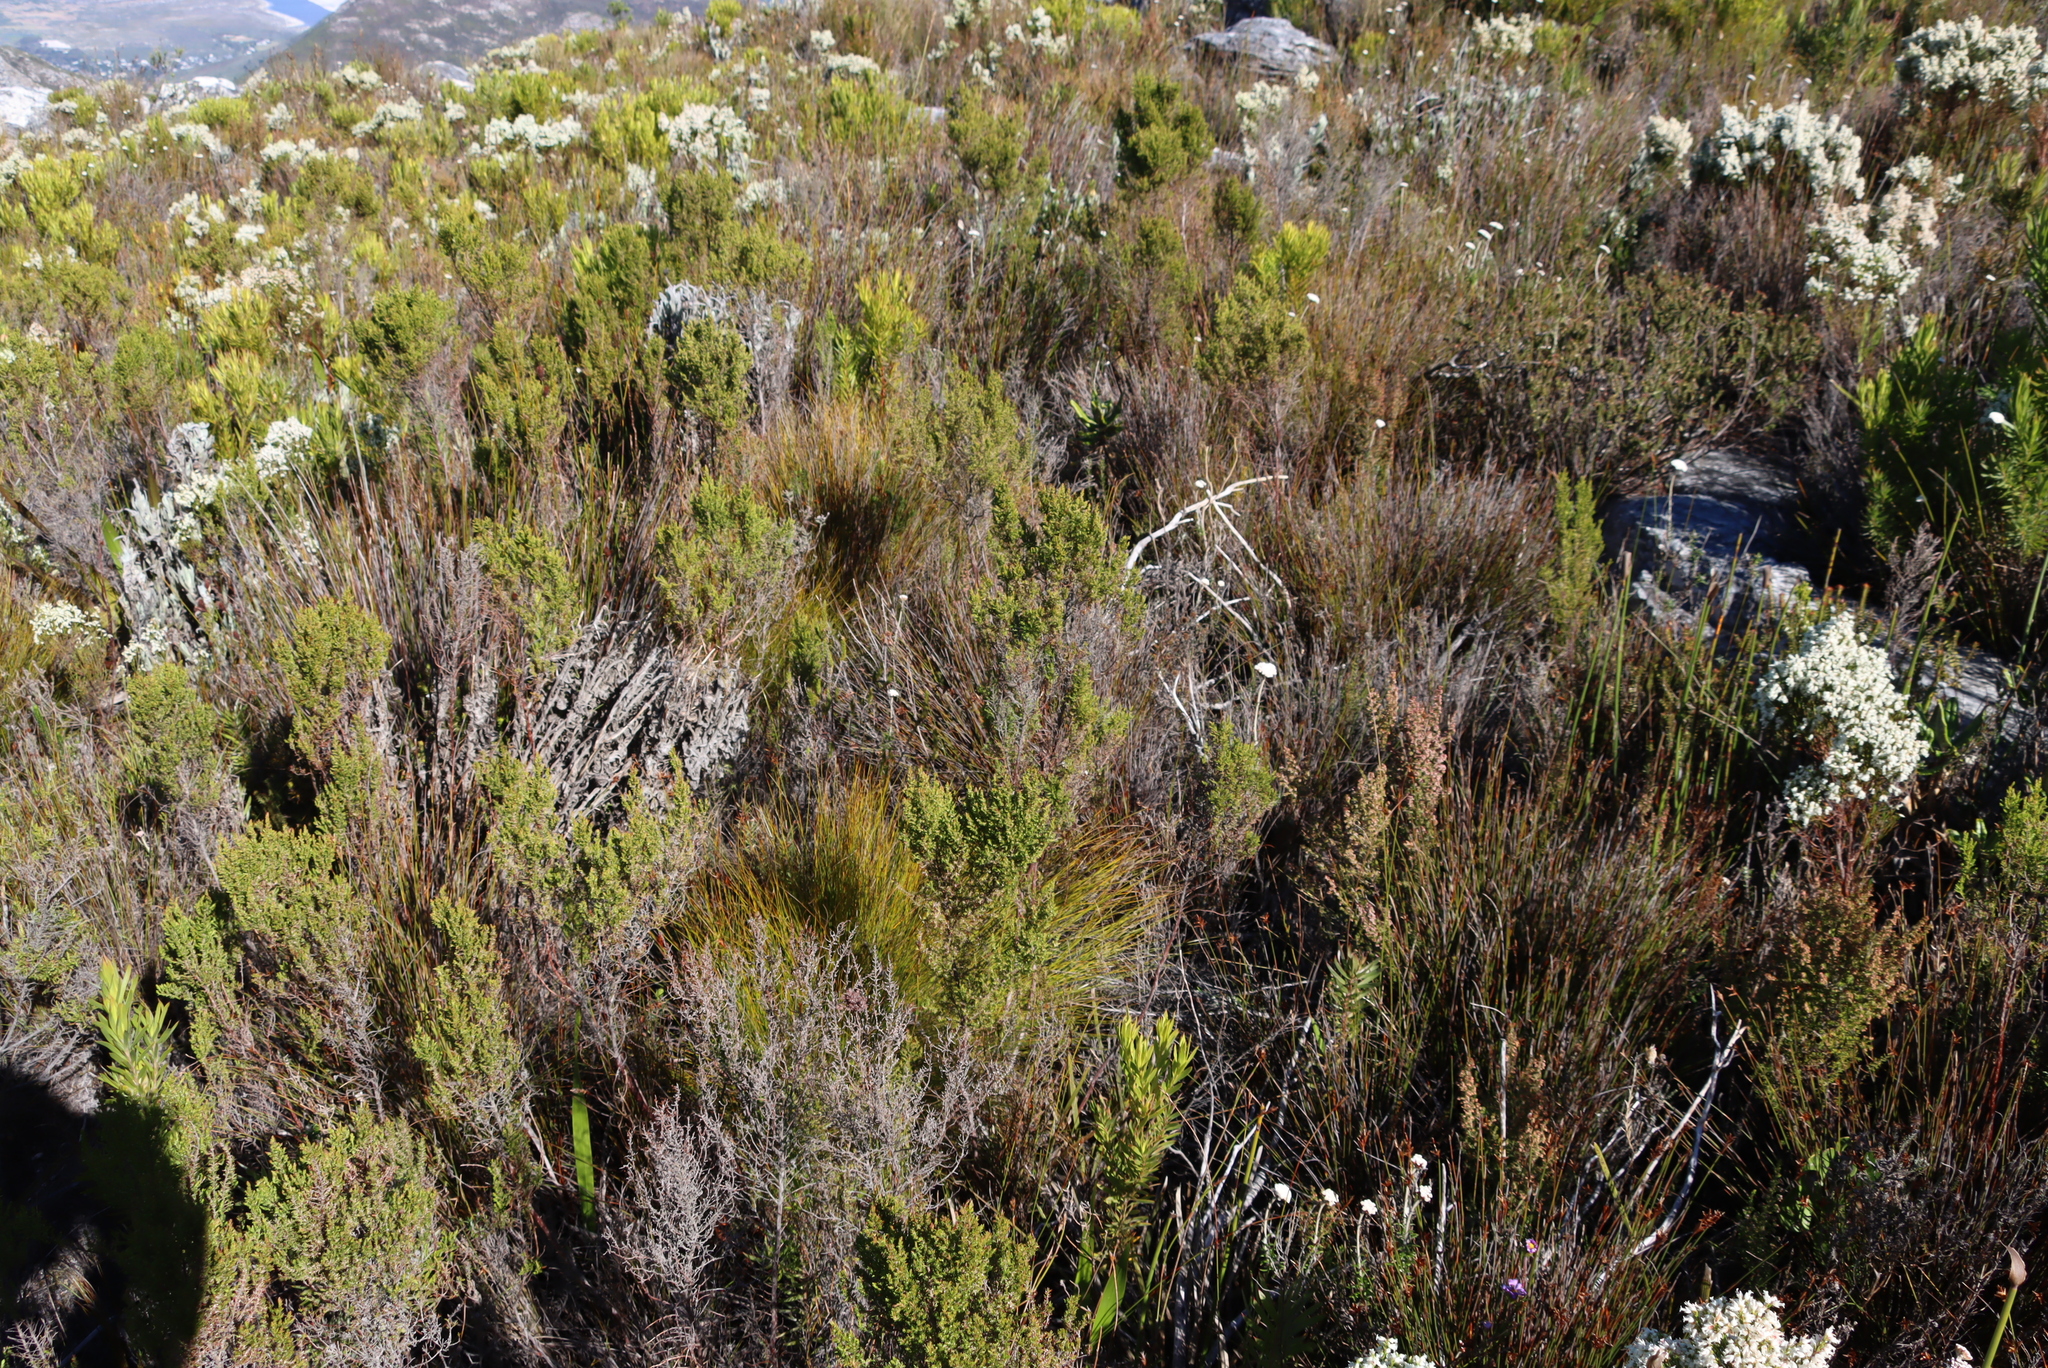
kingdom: Plantae
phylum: Tracheophyta
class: Magnoliopsida
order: Ericales
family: Ericaceae
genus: Erica
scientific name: Erica hispidula
